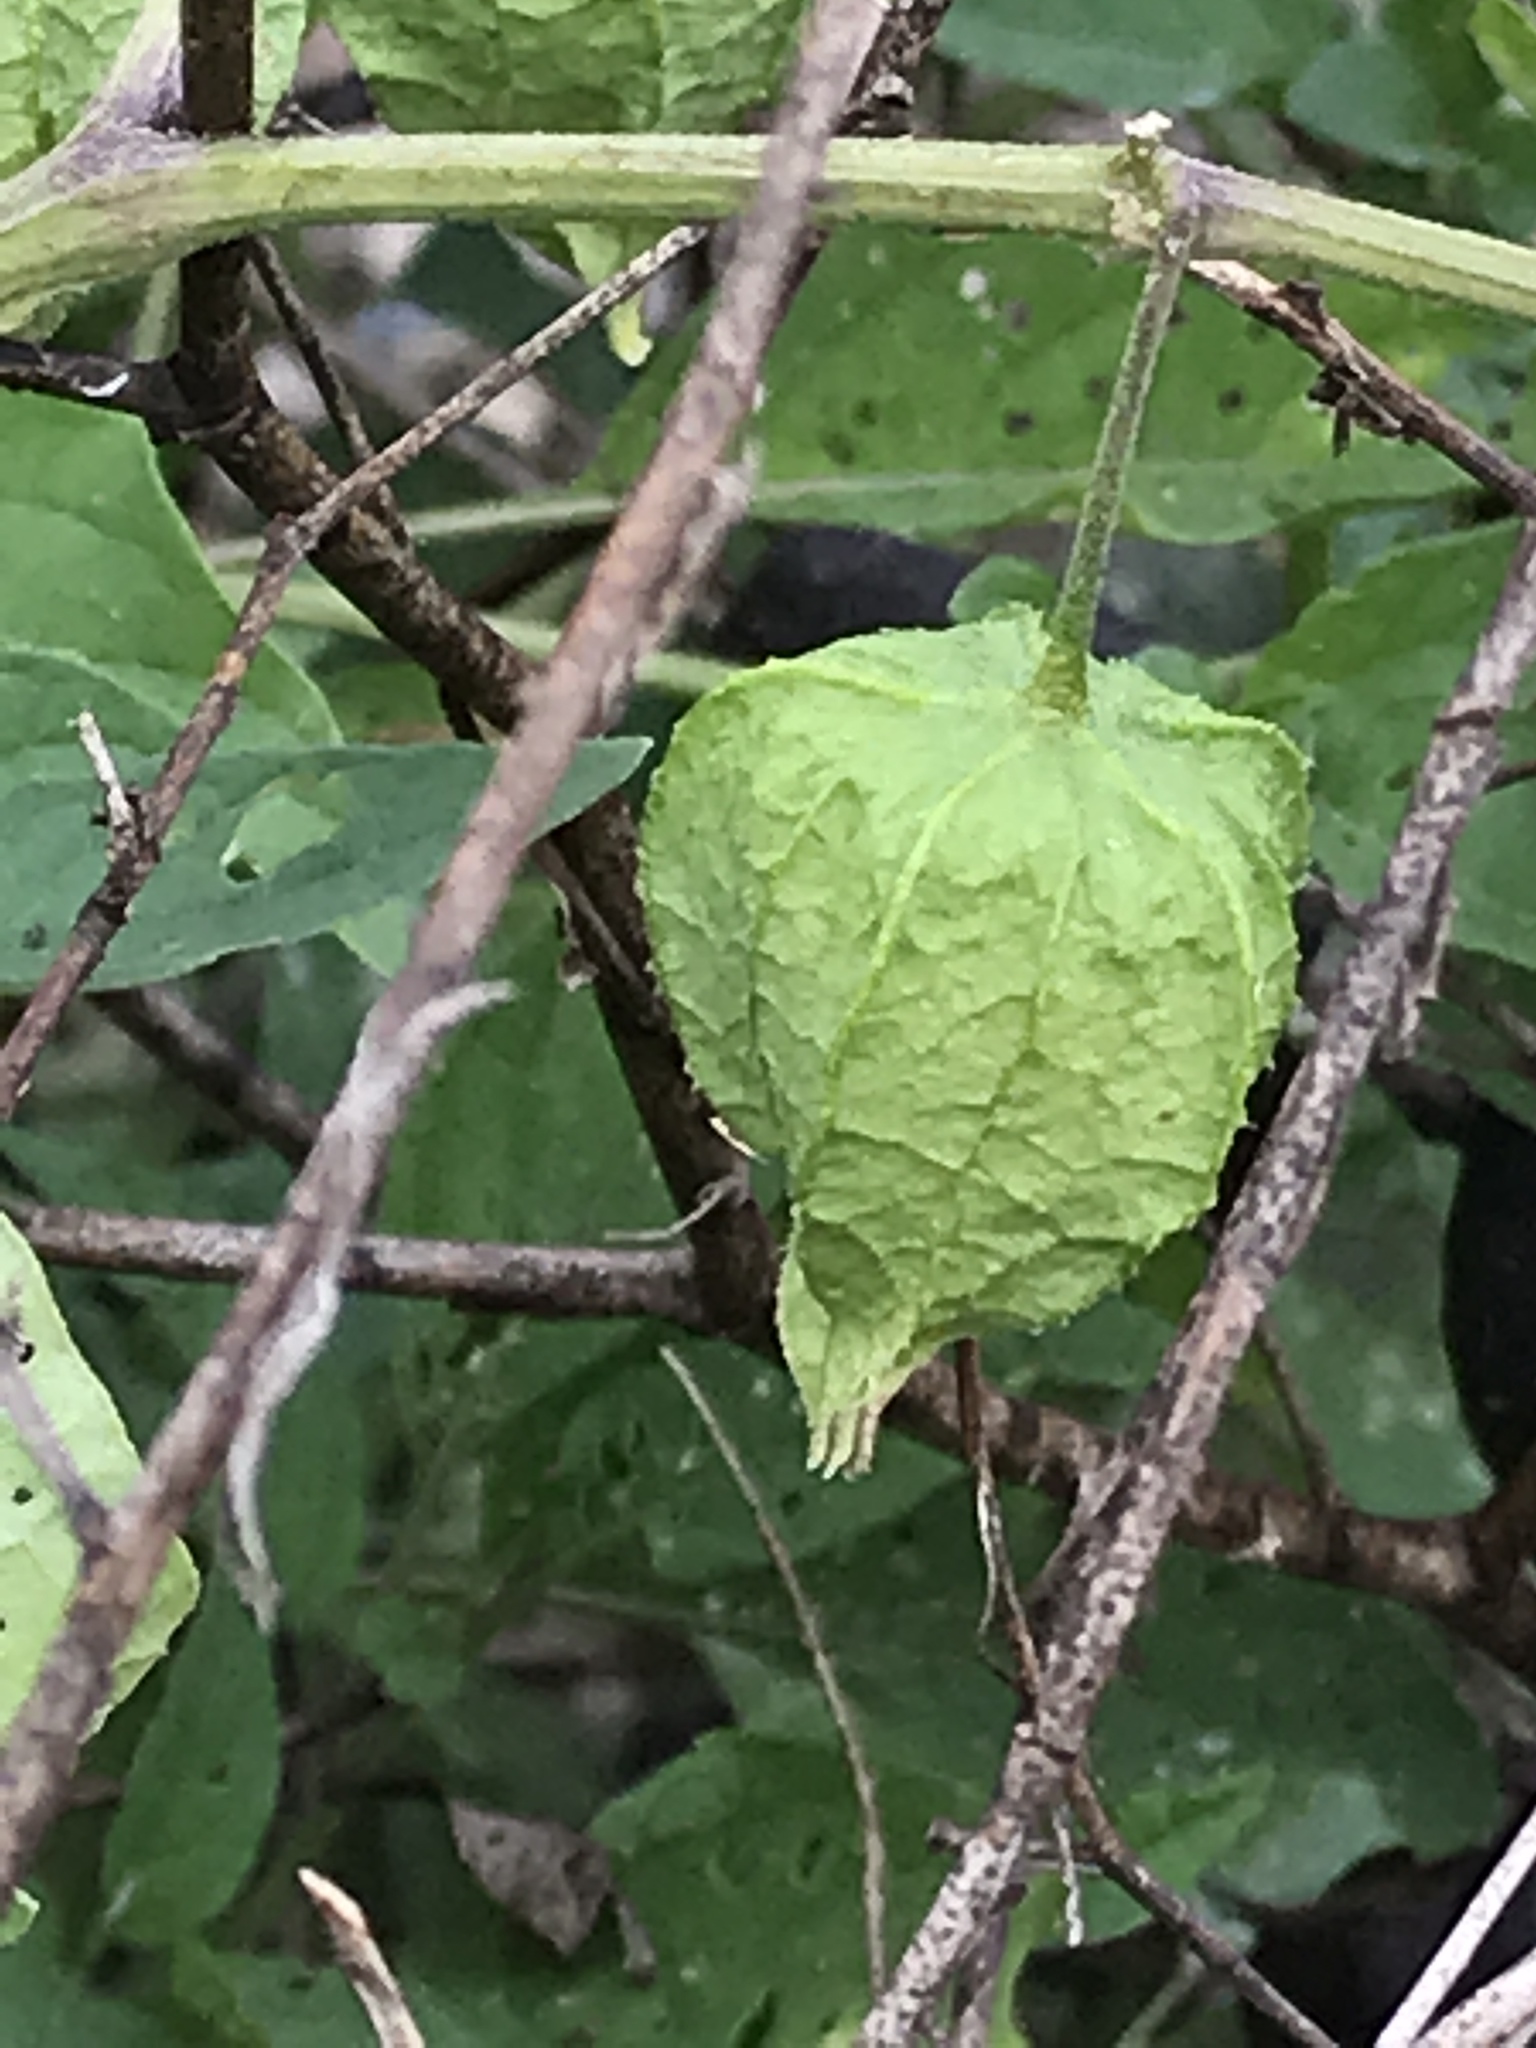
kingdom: Plantae
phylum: Tracheophyta
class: Magnoliopsida
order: Solanales
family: Solanaceae
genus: Physalis
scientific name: Physalis longifolia
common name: Common ground-cherry
